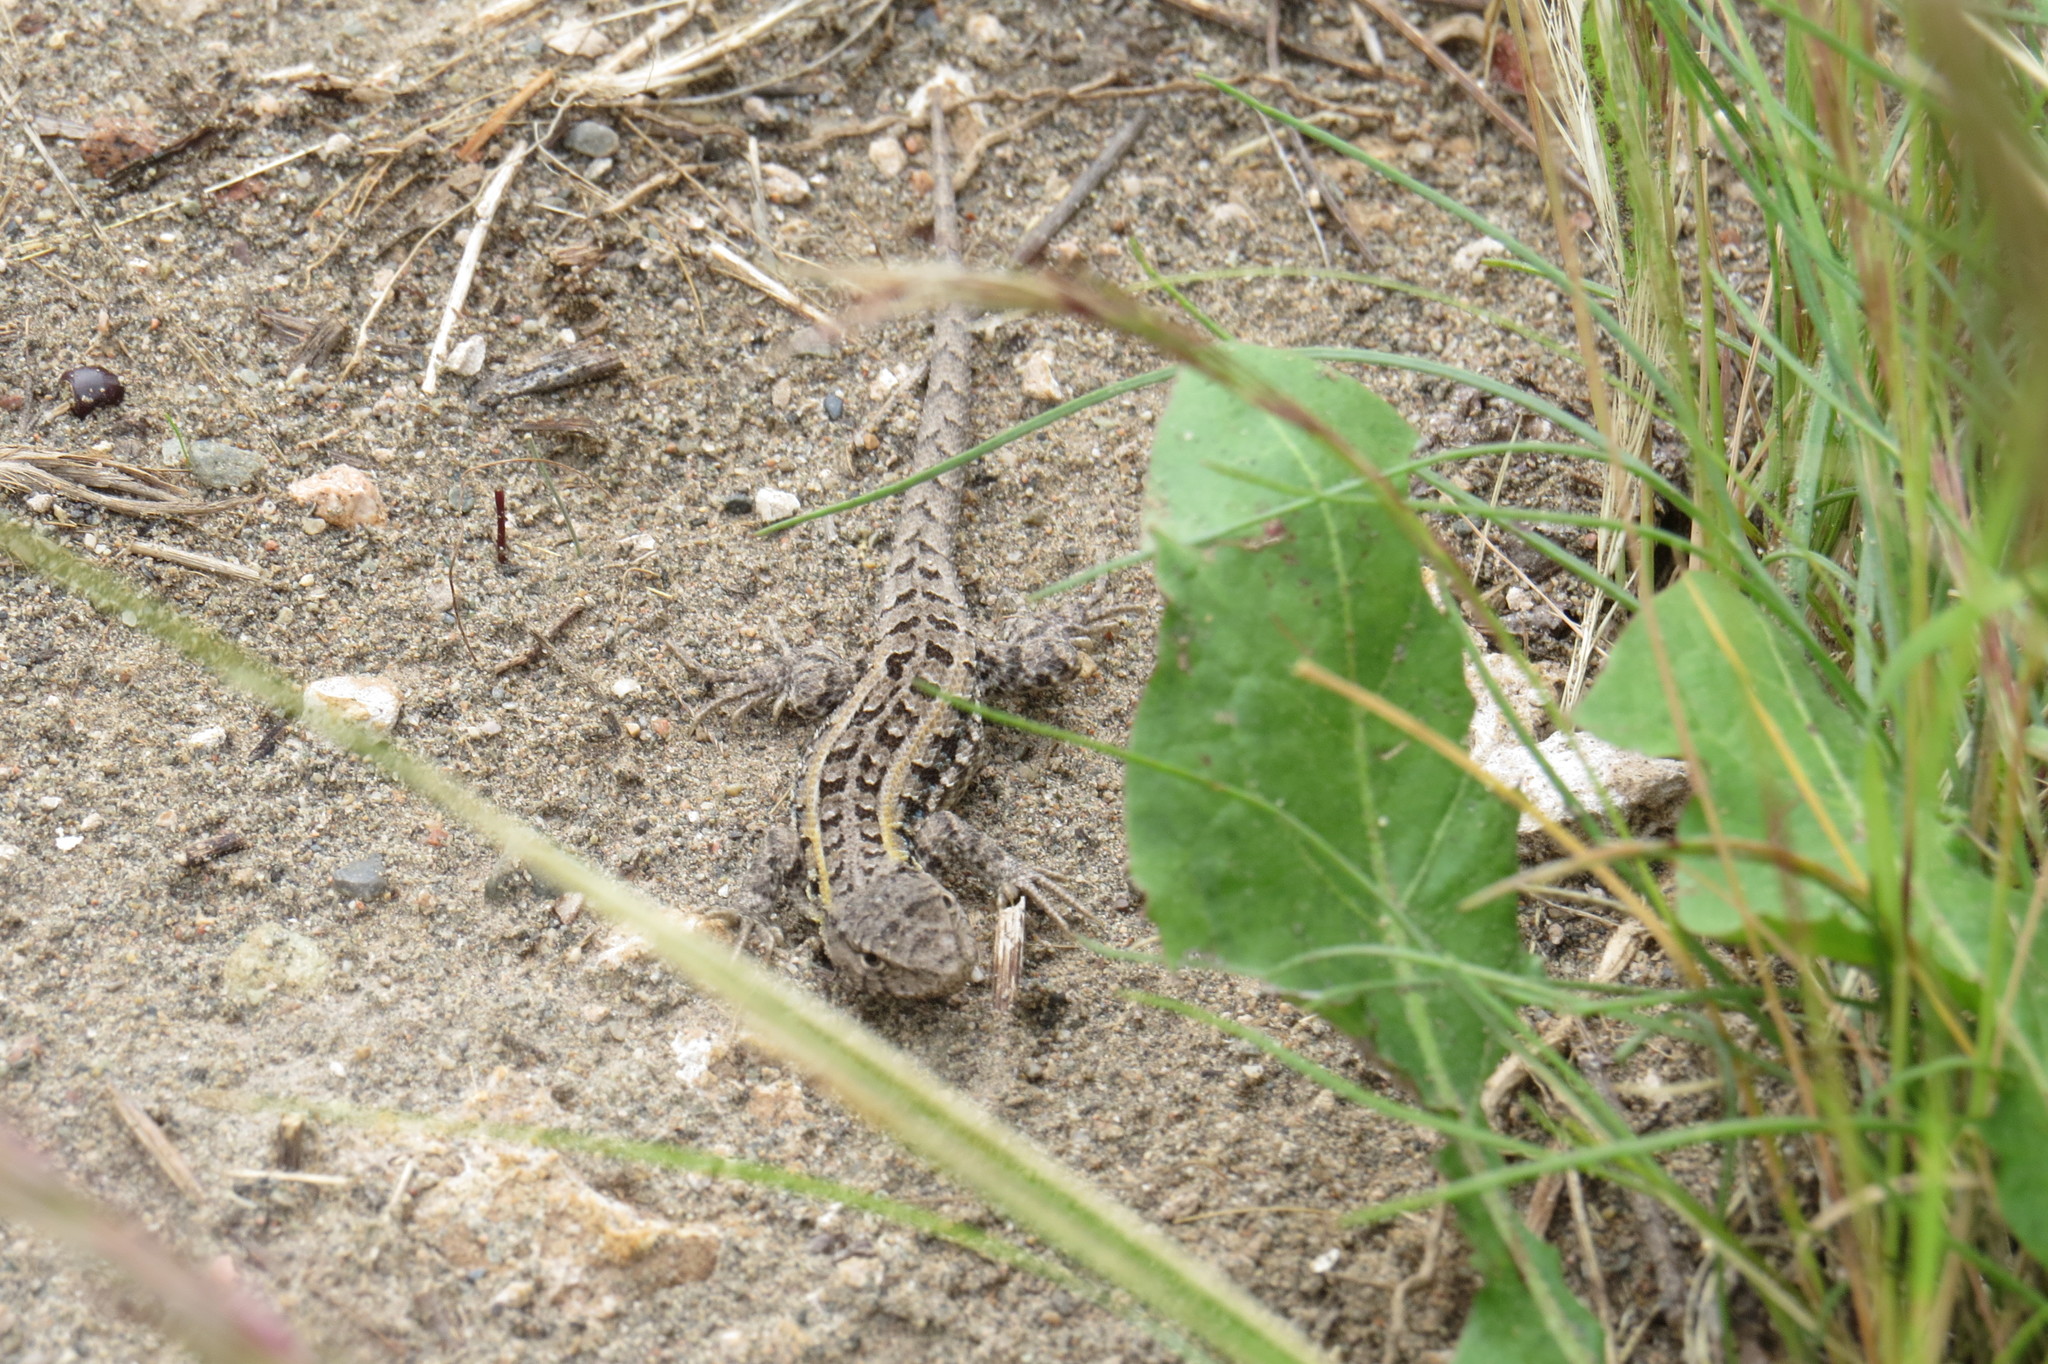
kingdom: Animalia
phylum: Chordata
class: Squamata
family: Liolaemidae
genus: Liolaemus
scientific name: Liolaemus wiegmannii
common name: Wiegmann's tree iguana
